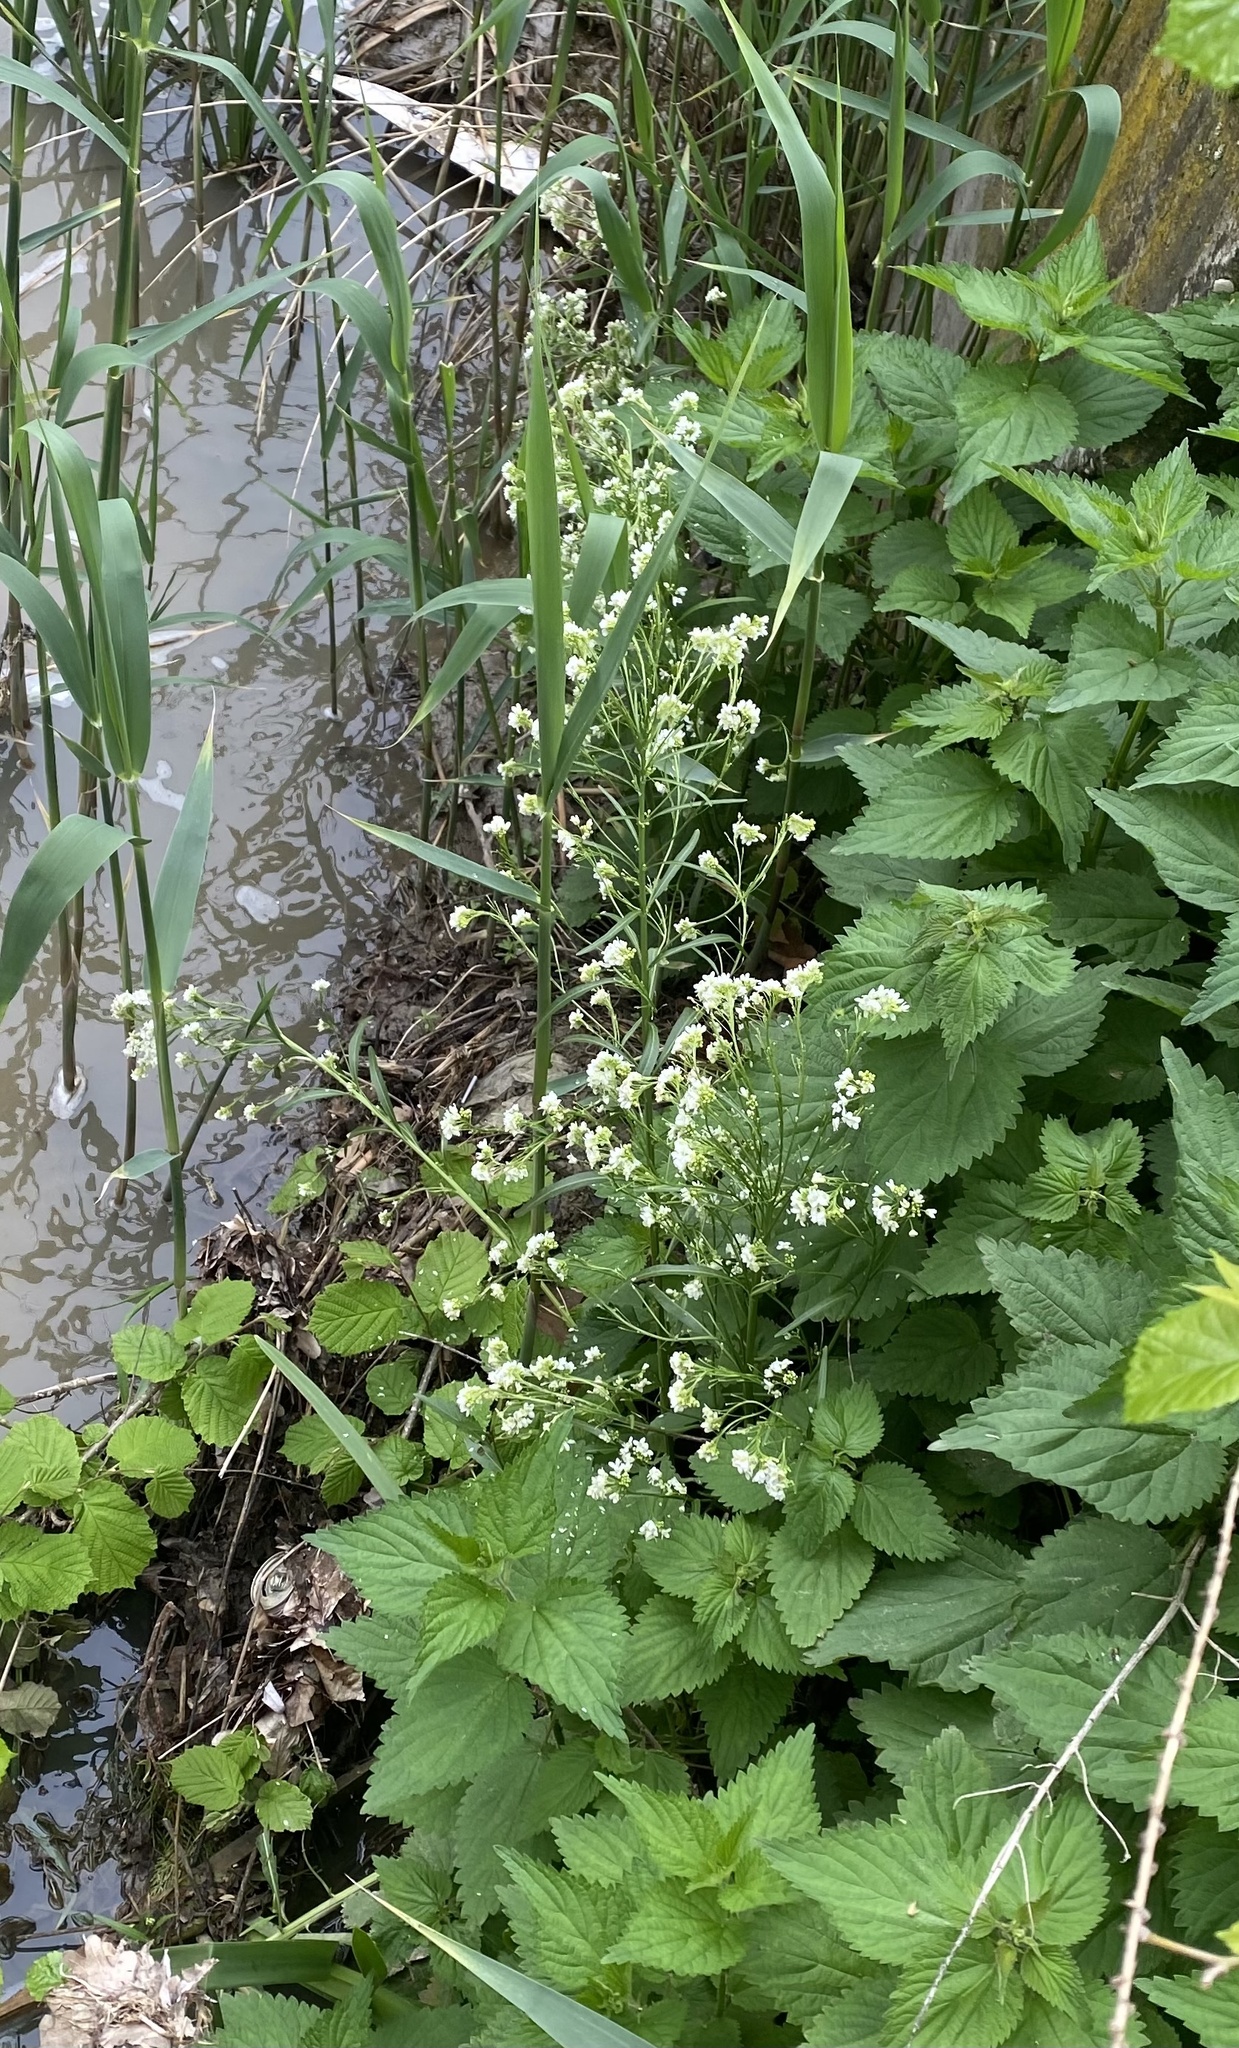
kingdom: Plantae
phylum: Tracheophyta
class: Magnoliopsida
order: Brassicales
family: Brassicaceae
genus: Armoracia
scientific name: Armoracia rusticana
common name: Horseradish
